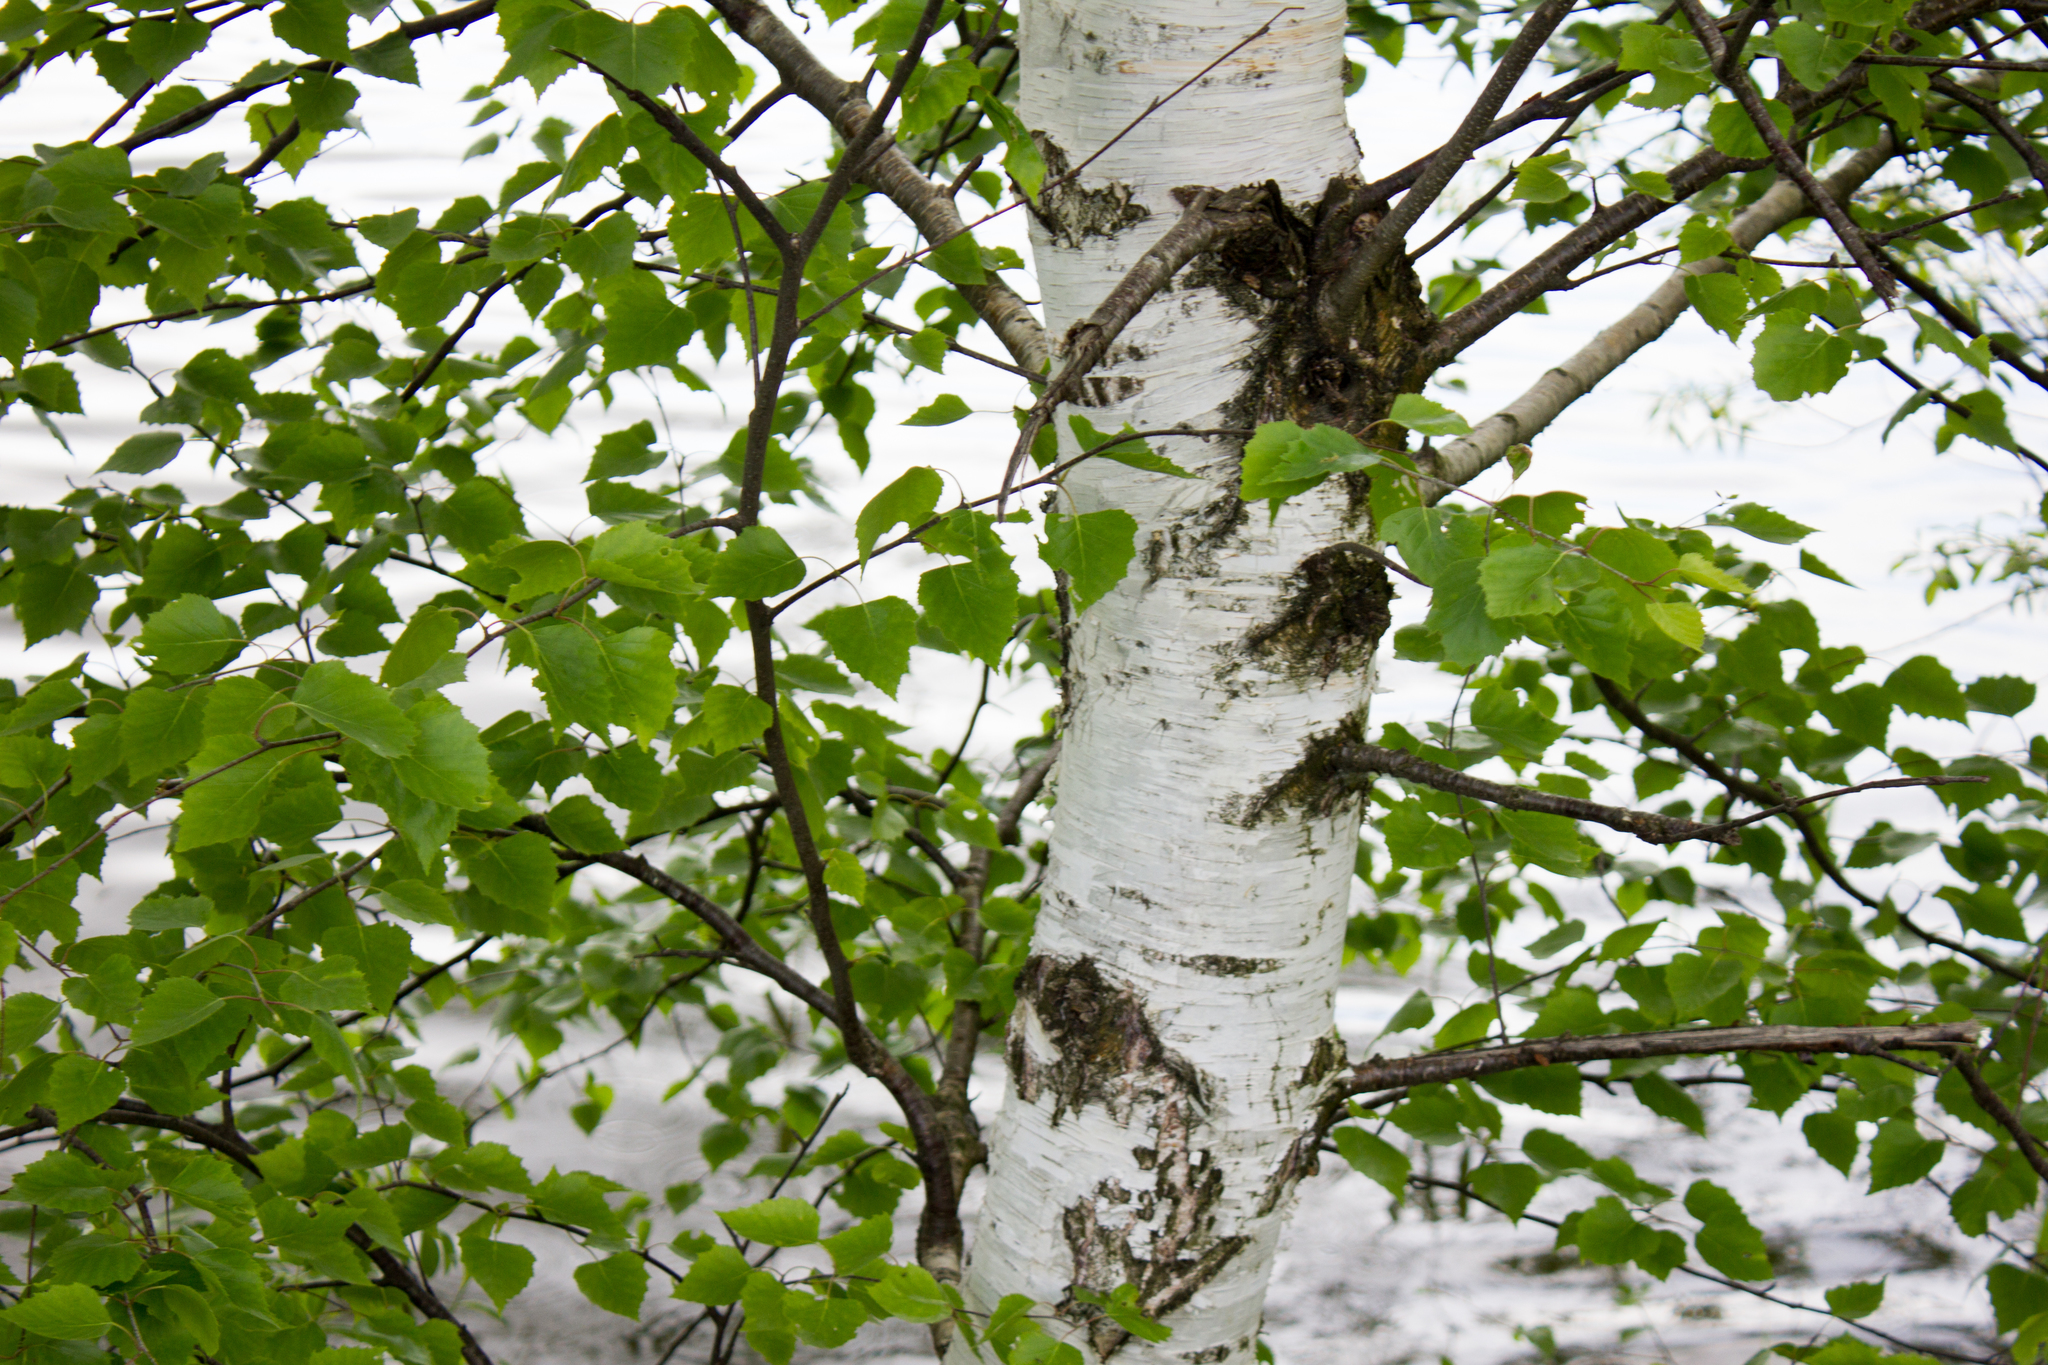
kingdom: Plantae
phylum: Tracheophyta
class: Magnoliopsida
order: Fagales
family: Betulaceae
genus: Betula
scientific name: Betula pendula
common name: Silver birch
